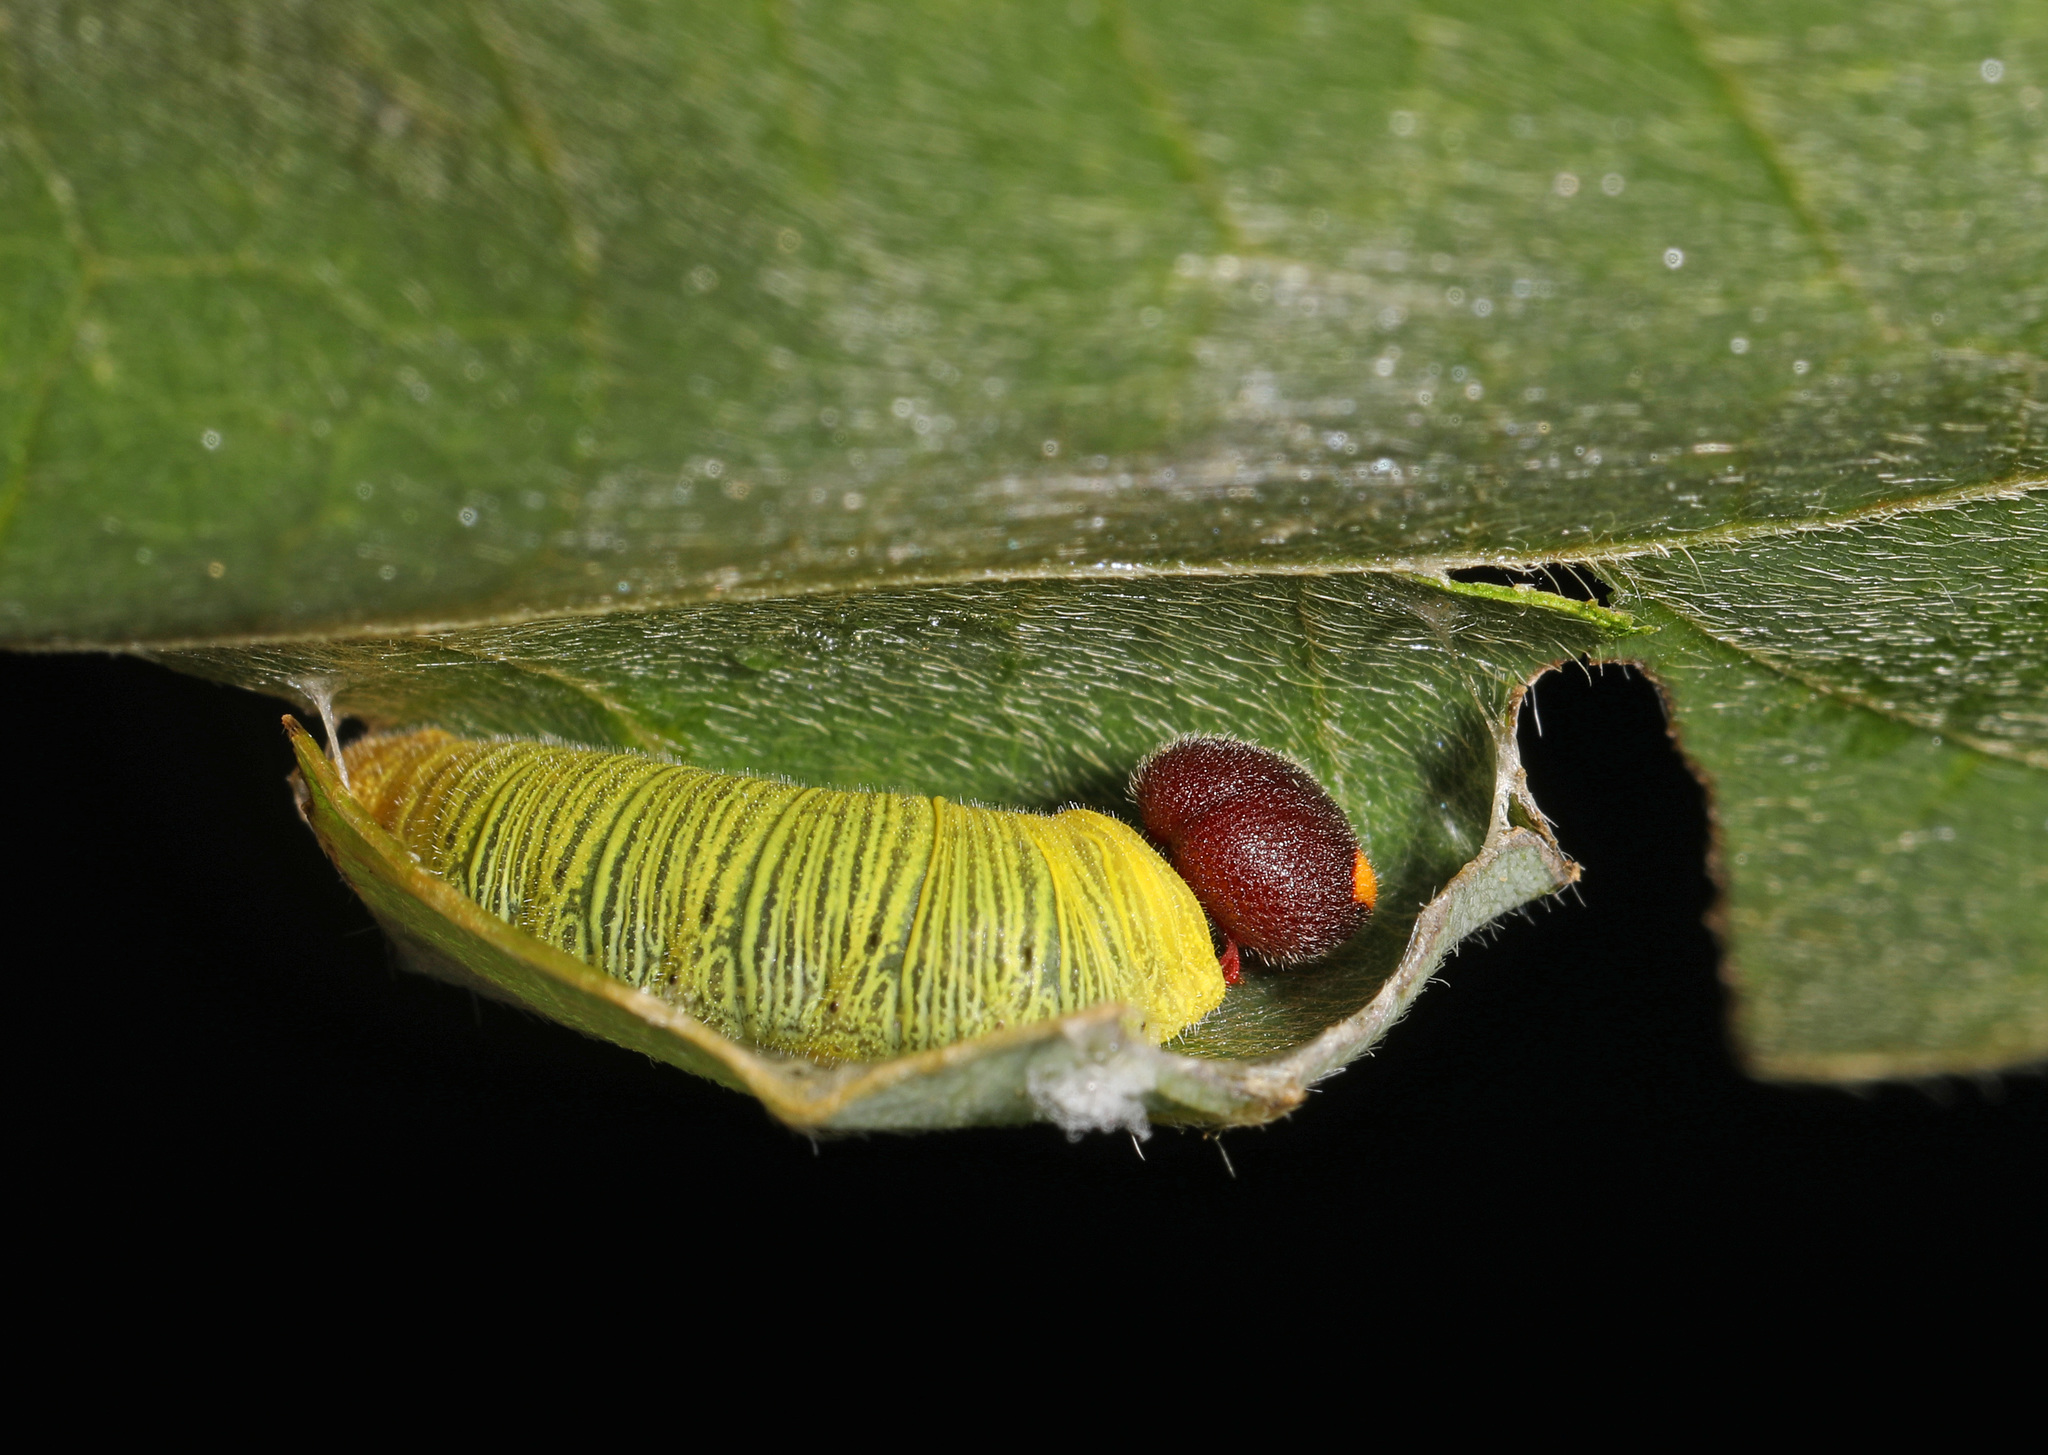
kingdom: Animalia
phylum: Arthropoda
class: Insecta
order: Lepidoptera
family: Hesperiidae
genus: Epargyreus
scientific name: Epargyreus clarus
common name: Silver-spotted skipper
